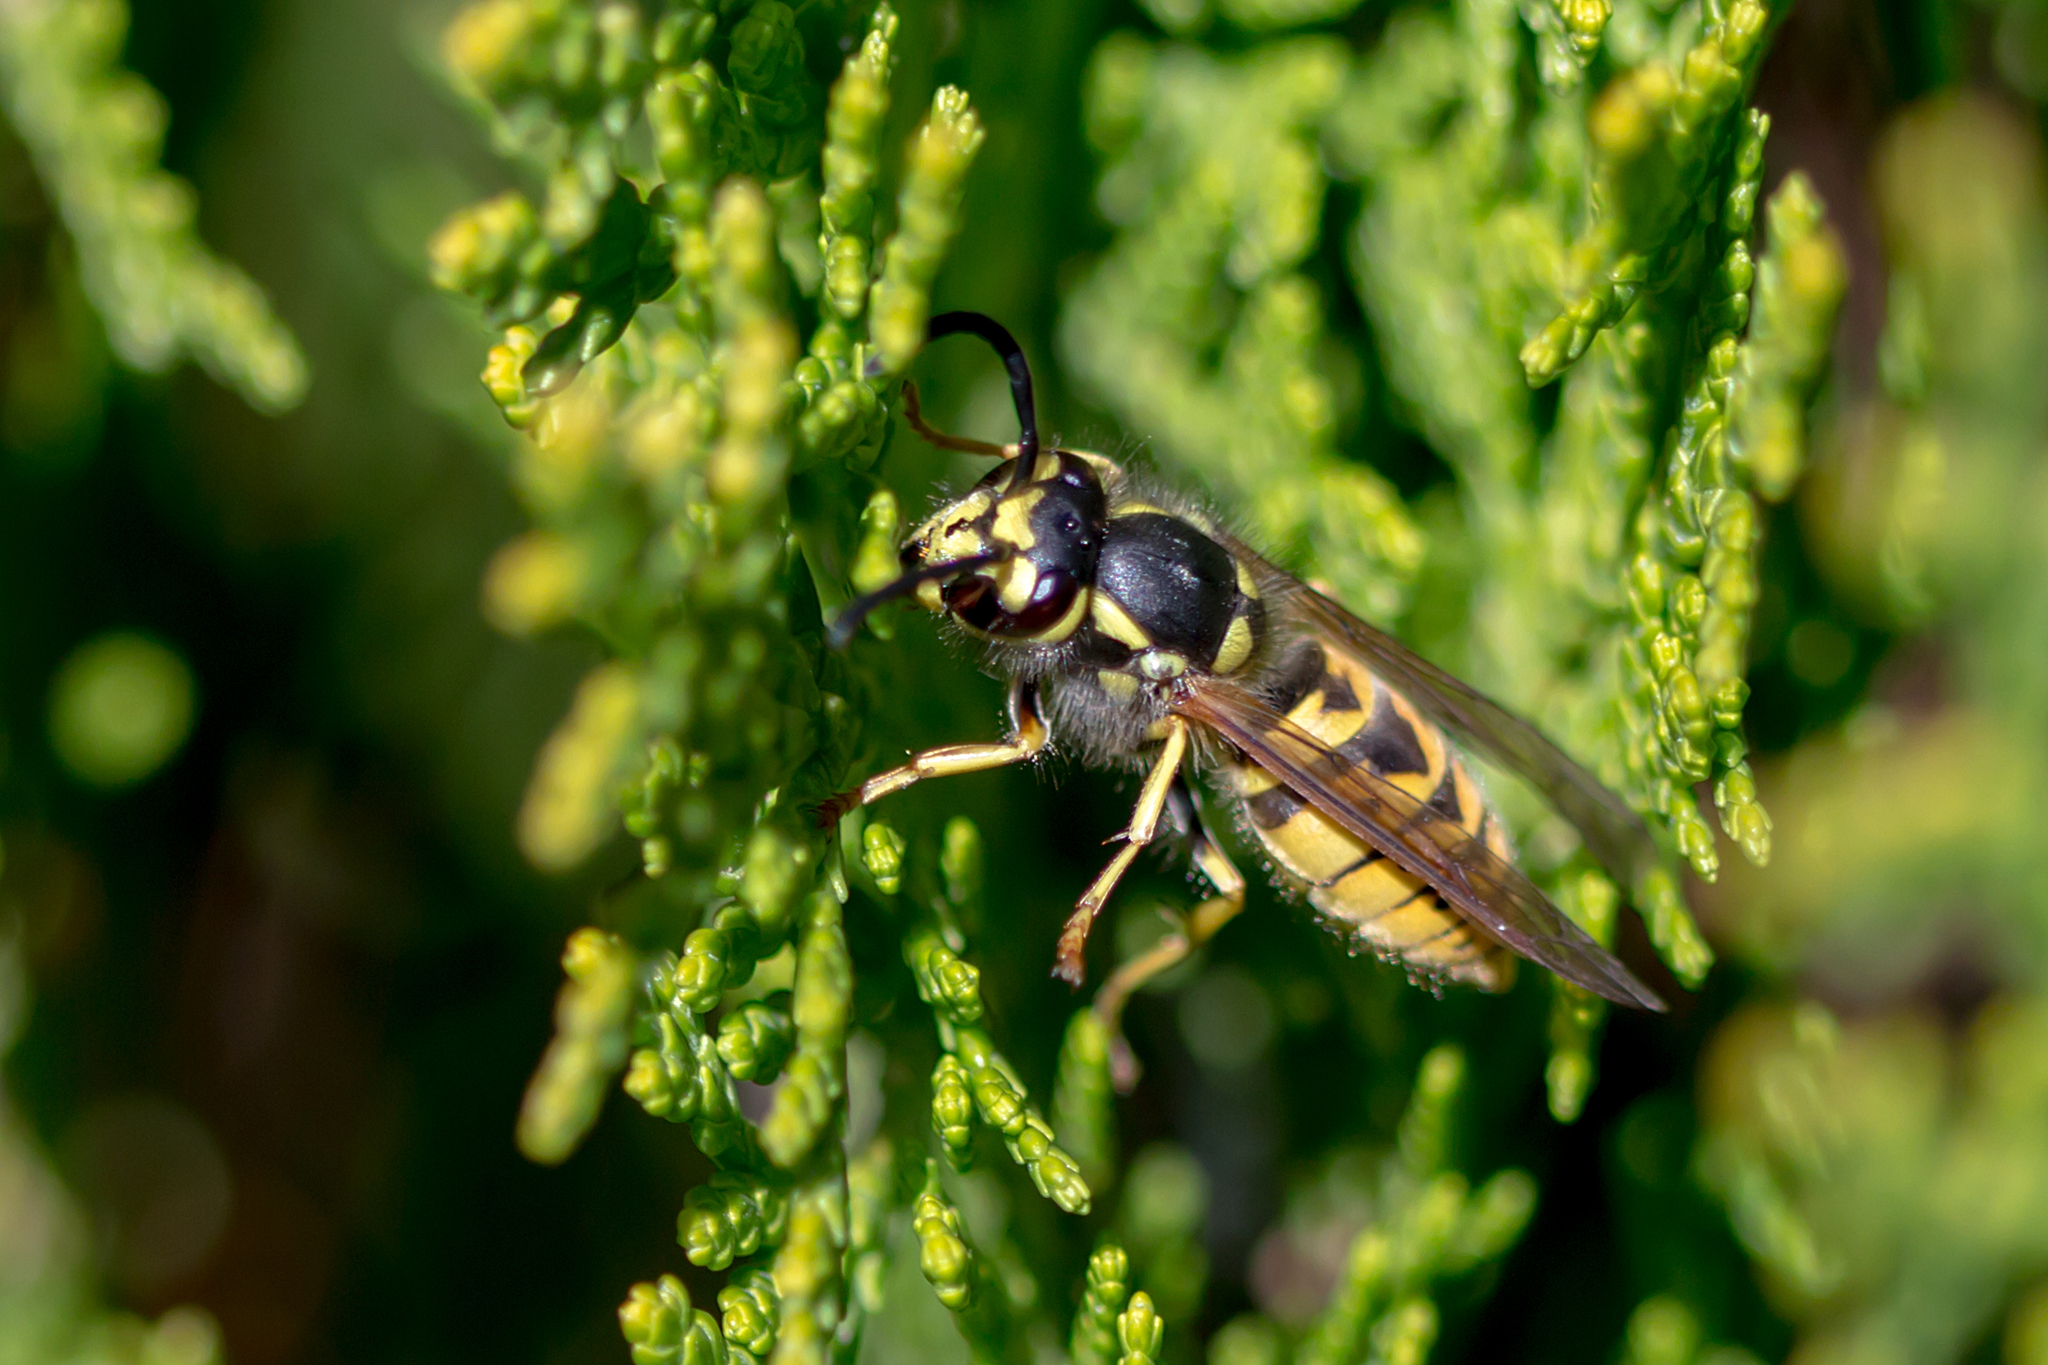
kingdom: Animalia
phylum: Arthropoda
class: Insecta
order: Hymenoptera
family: Vespidae
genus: Vespula
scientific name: Vespula germanica
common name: German wasp
